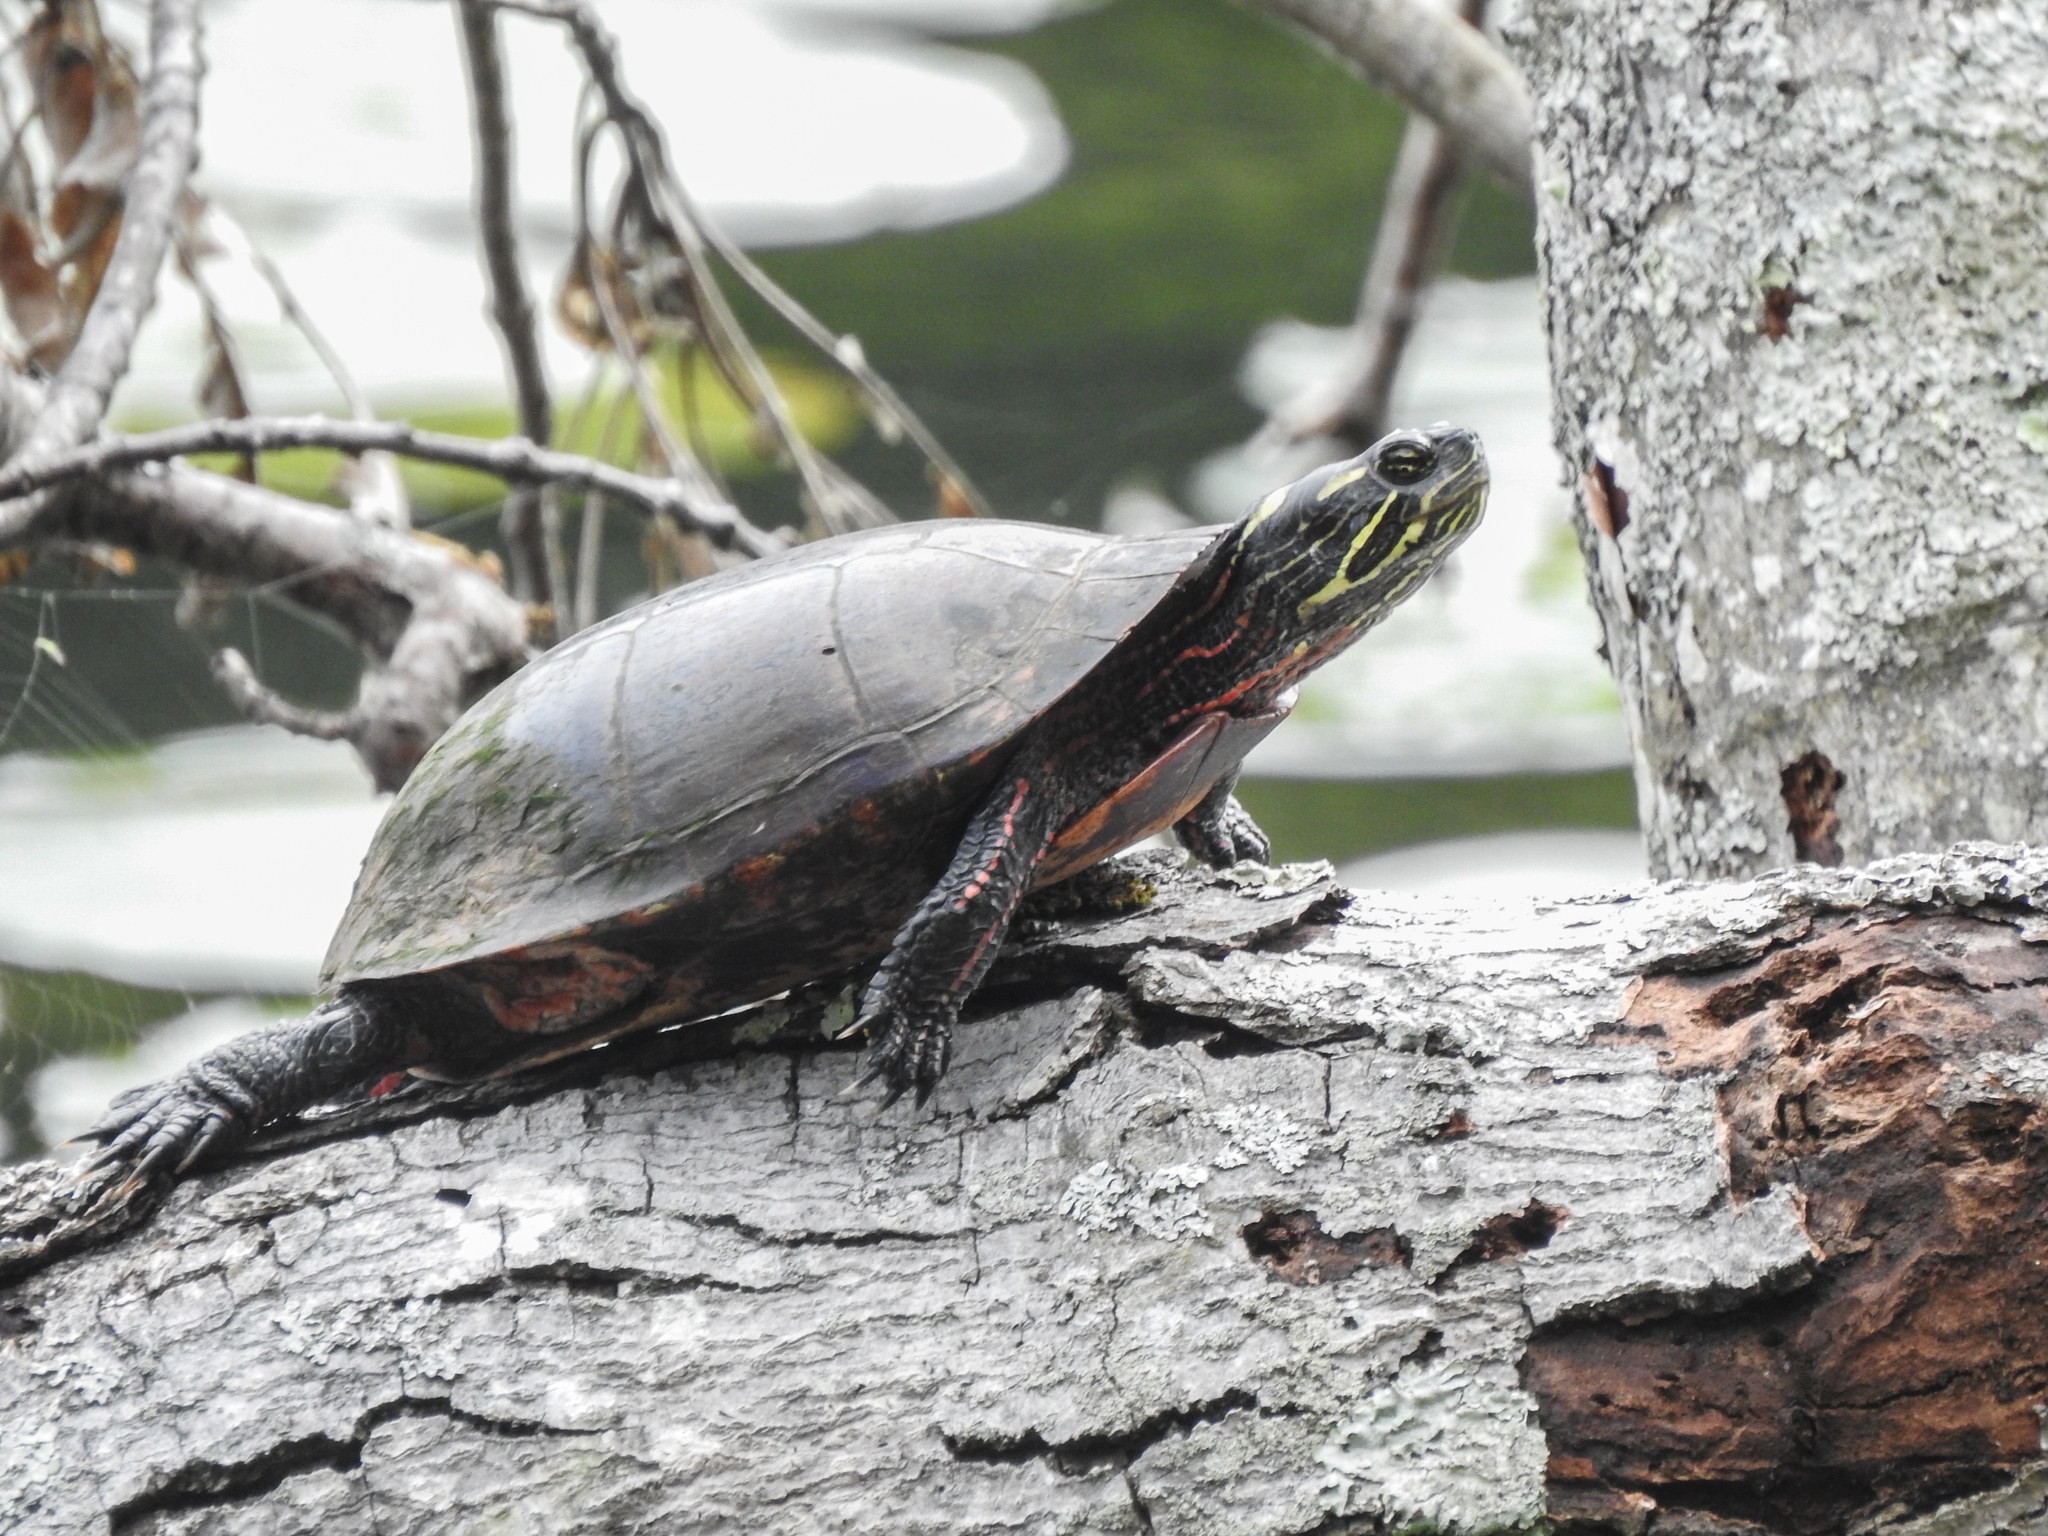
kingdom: Animalia
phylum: Chordata
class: Testudines
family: Emydidae
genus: Chrysemys
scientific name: Chrysemys picta
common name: Painted turtle
